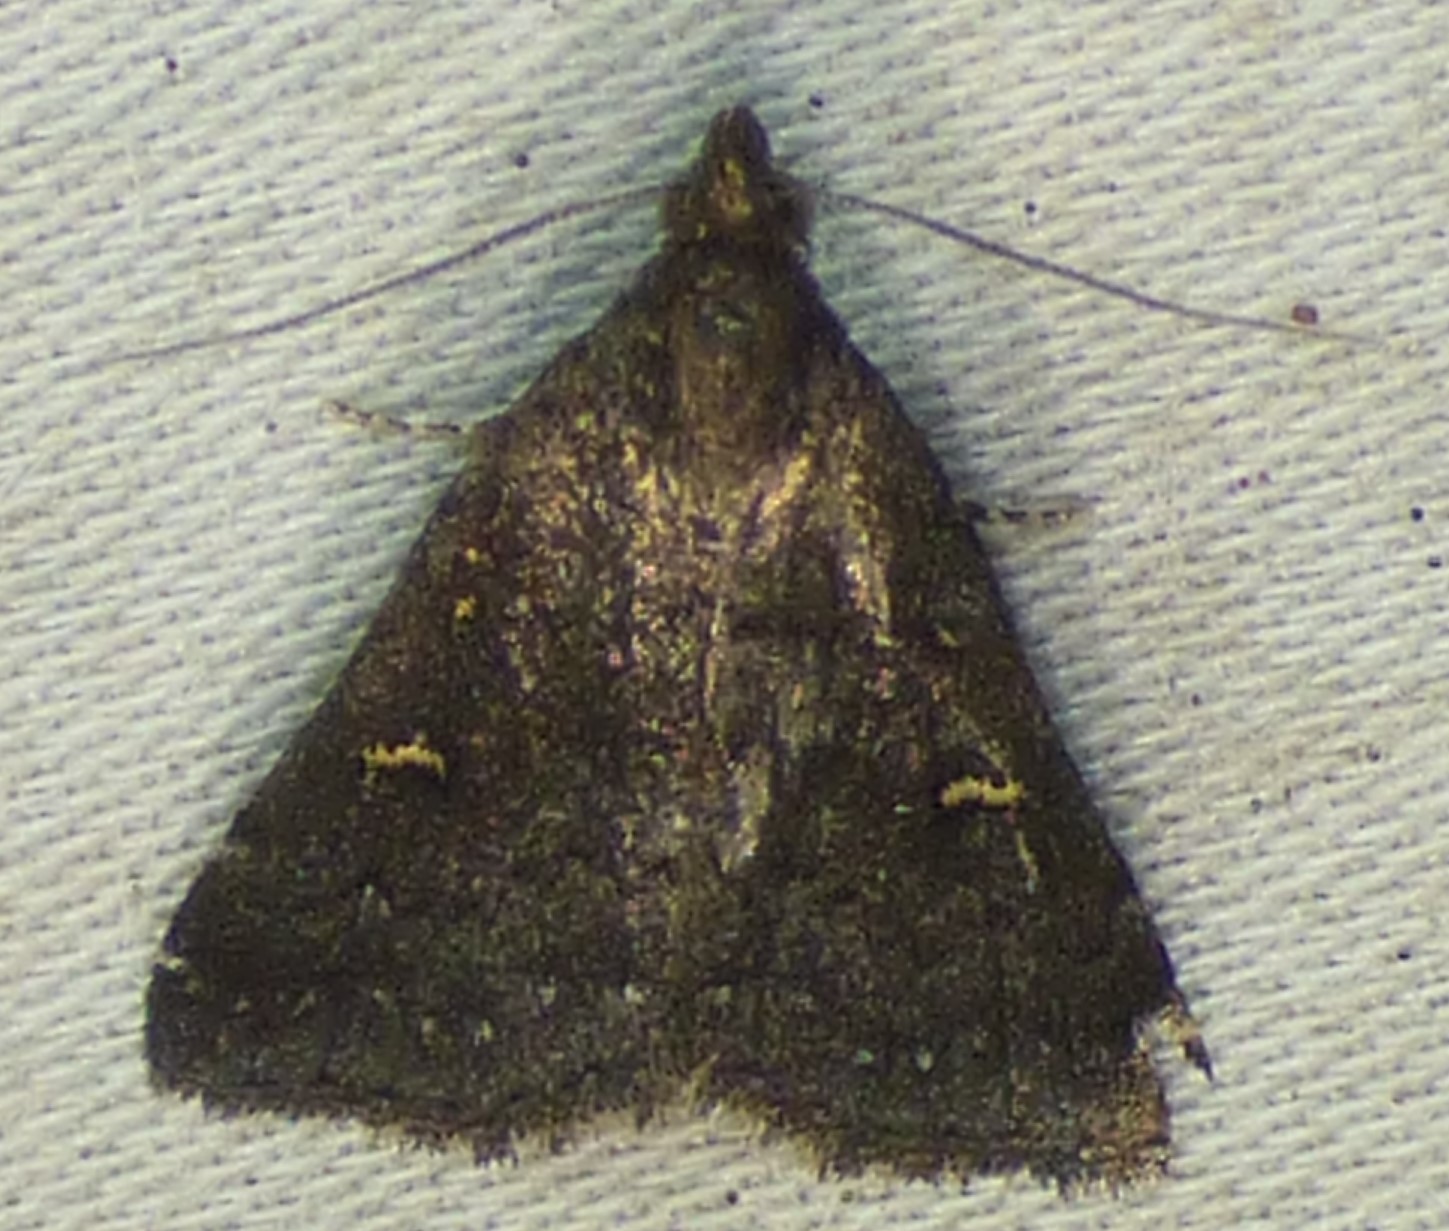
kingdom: Animalia
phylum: Arthropoda
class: Insecta
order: Lepidoptera
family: Erebidae
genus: Tetanolita
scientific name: Tetanolita mynesalis
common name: Smoky tetanolita moth
